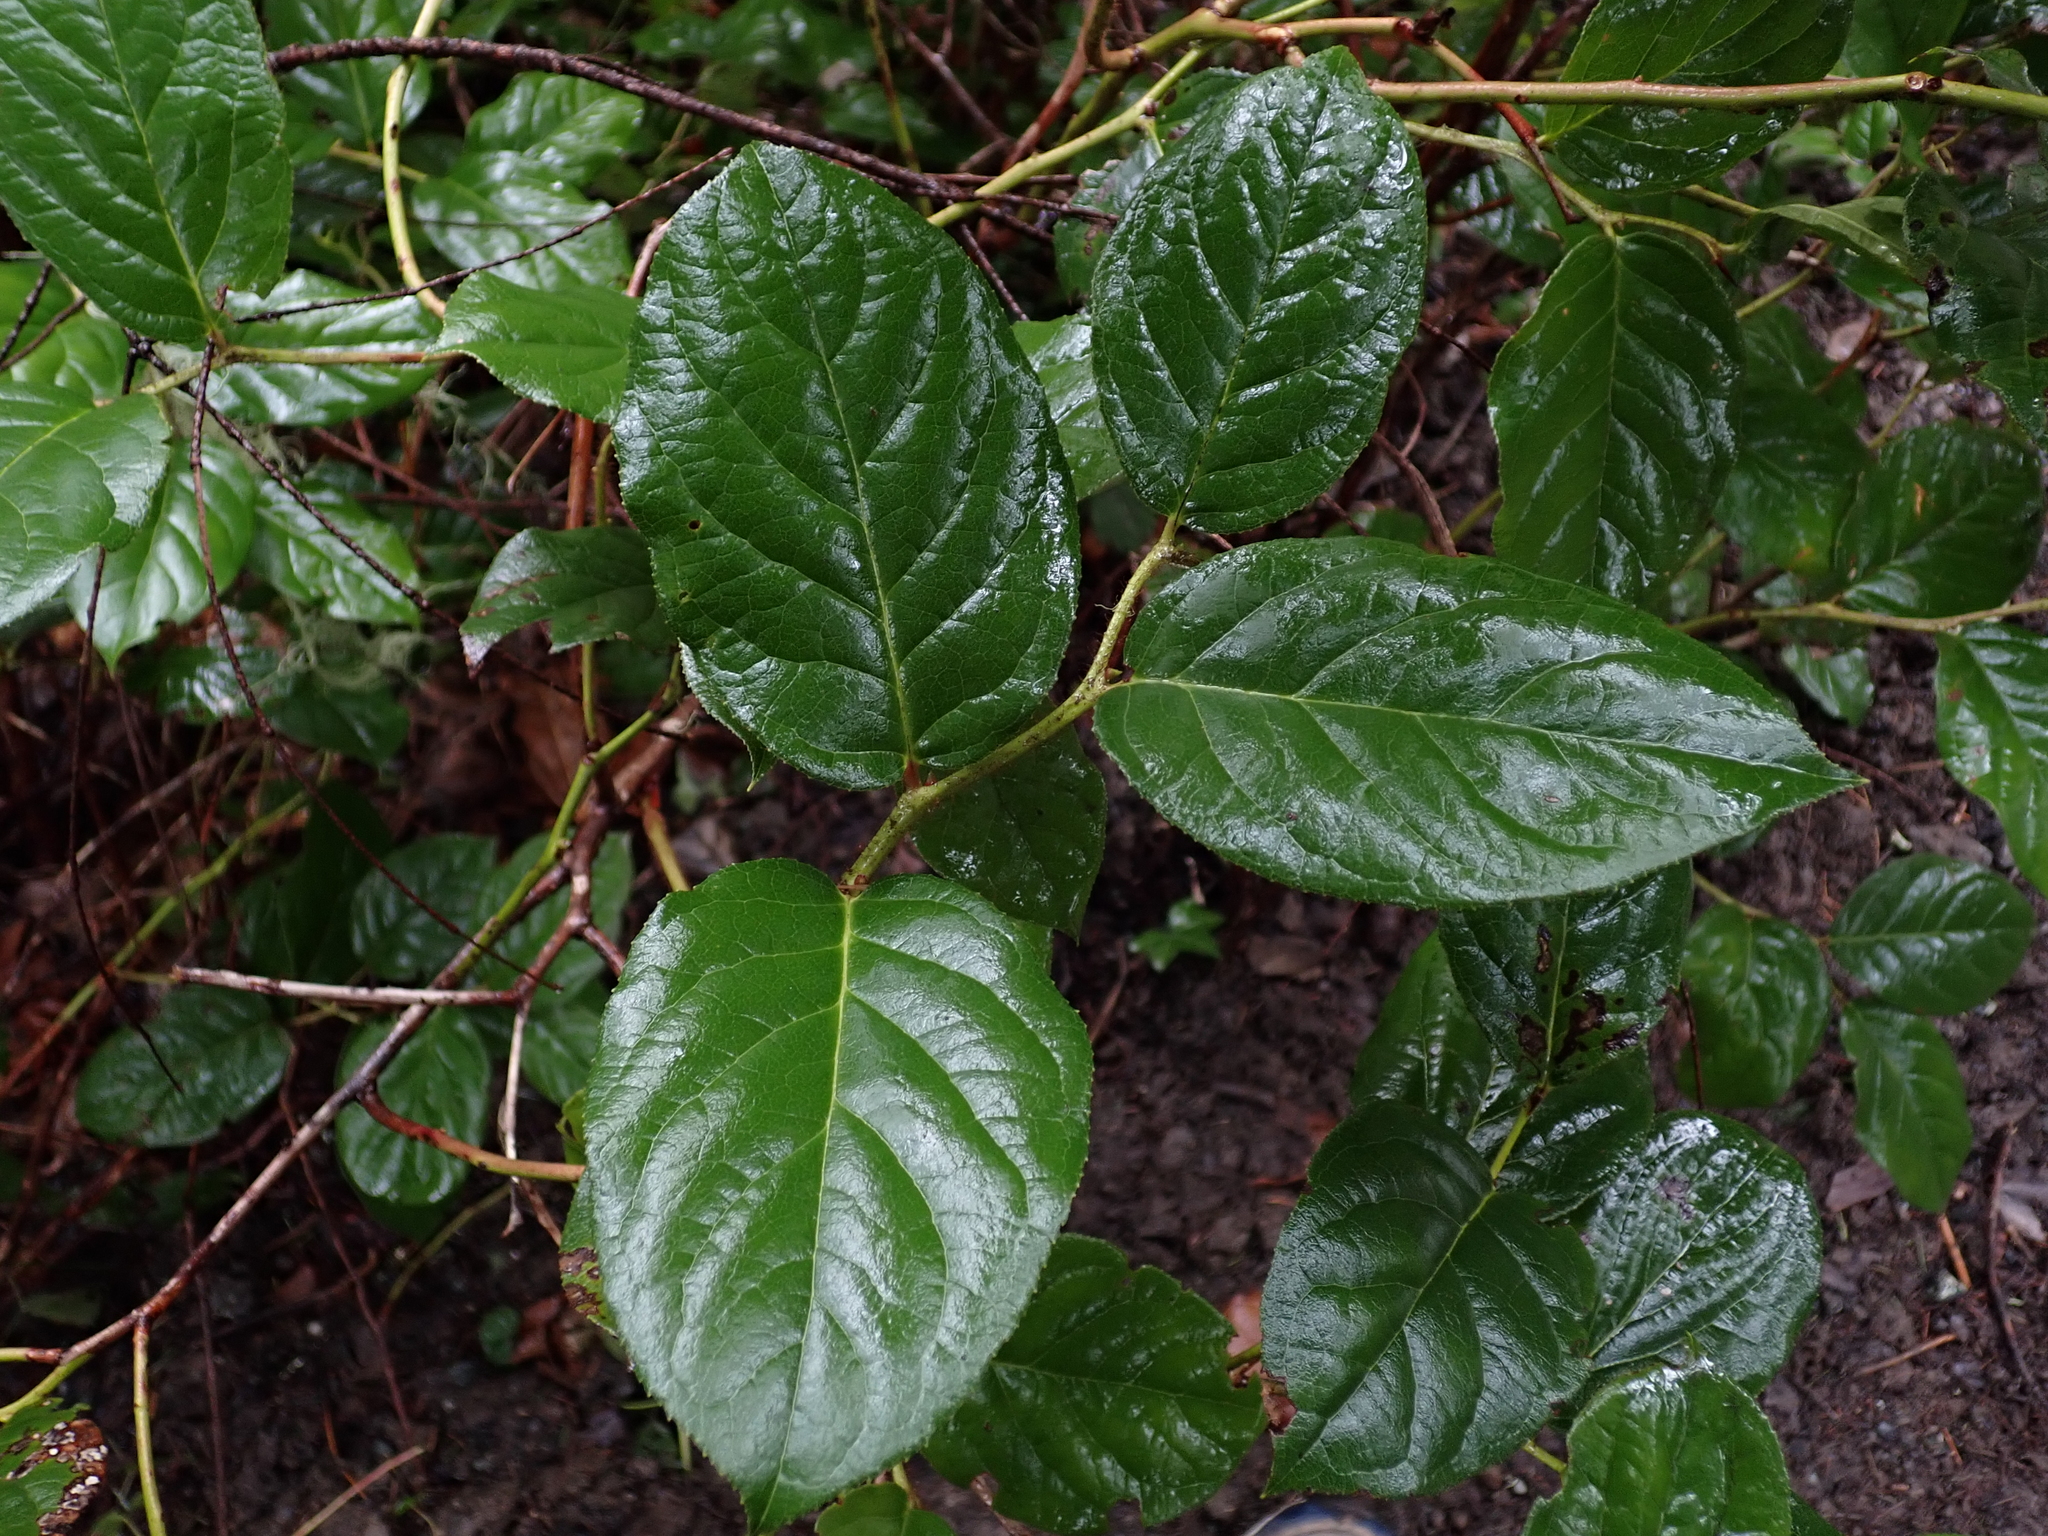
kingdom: Plantae
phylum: Tracheophyta
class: Magnoliopsida
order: Ericales
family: Ericaceae
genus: Gaultheria
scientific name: Gaultheria shallon
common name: Shallon
